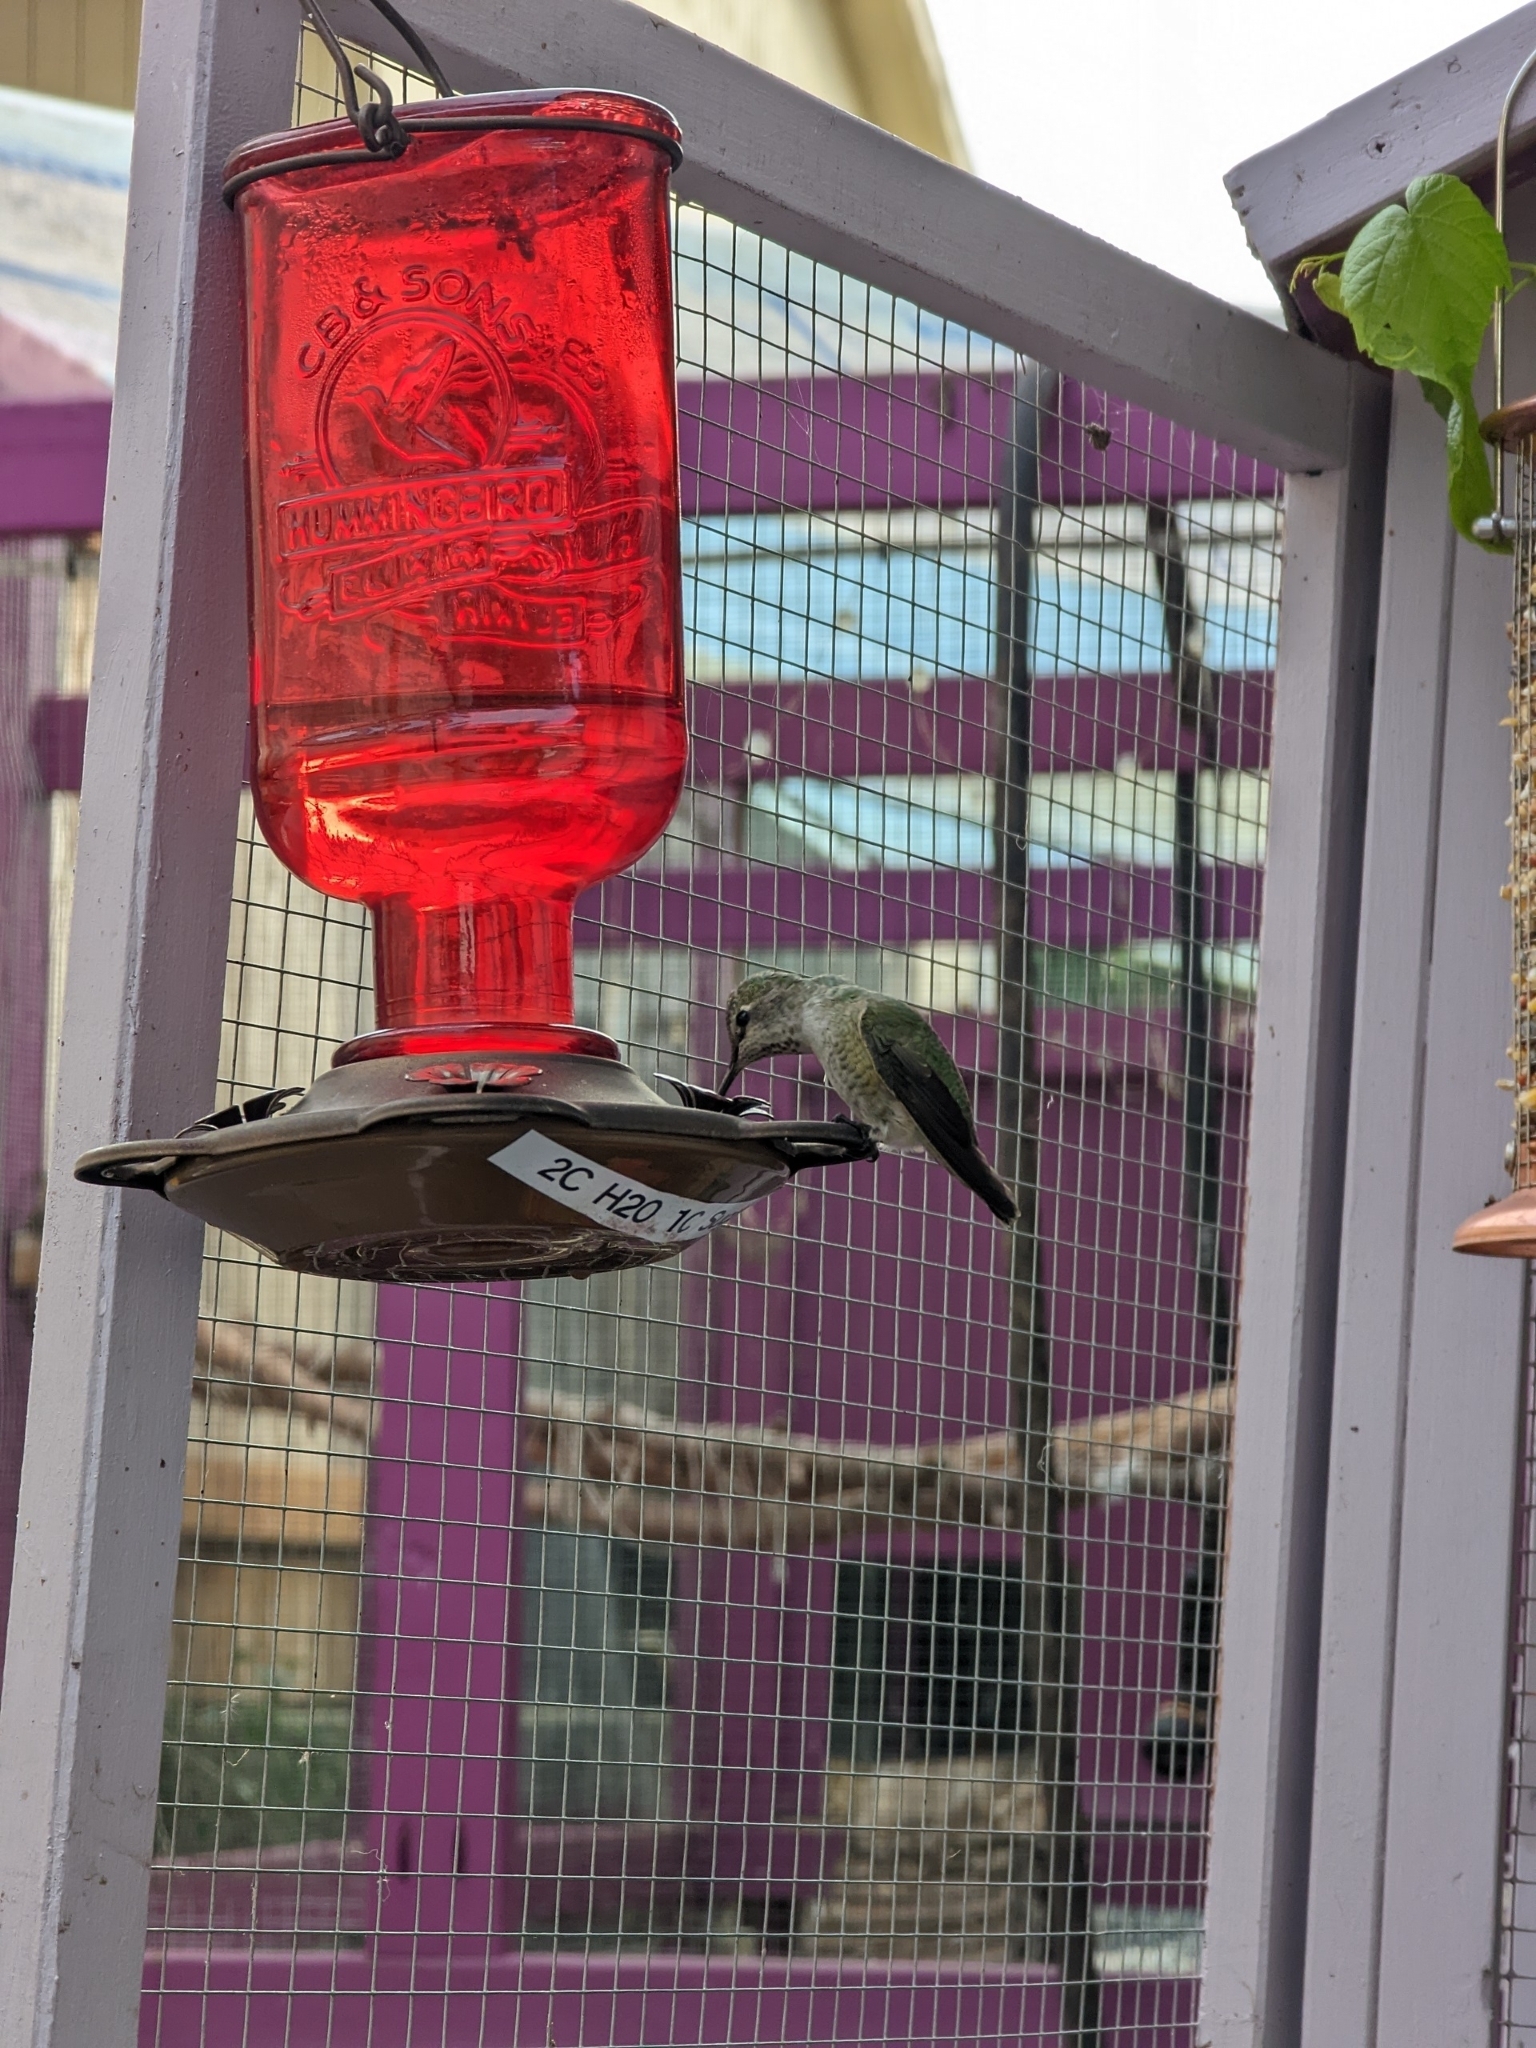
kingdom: Animalia
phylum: Chordata
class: Aves
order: Apodiformes
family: Trochilidae
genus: Calypte
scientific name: Calypte anna
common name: Anna's hummingbird
